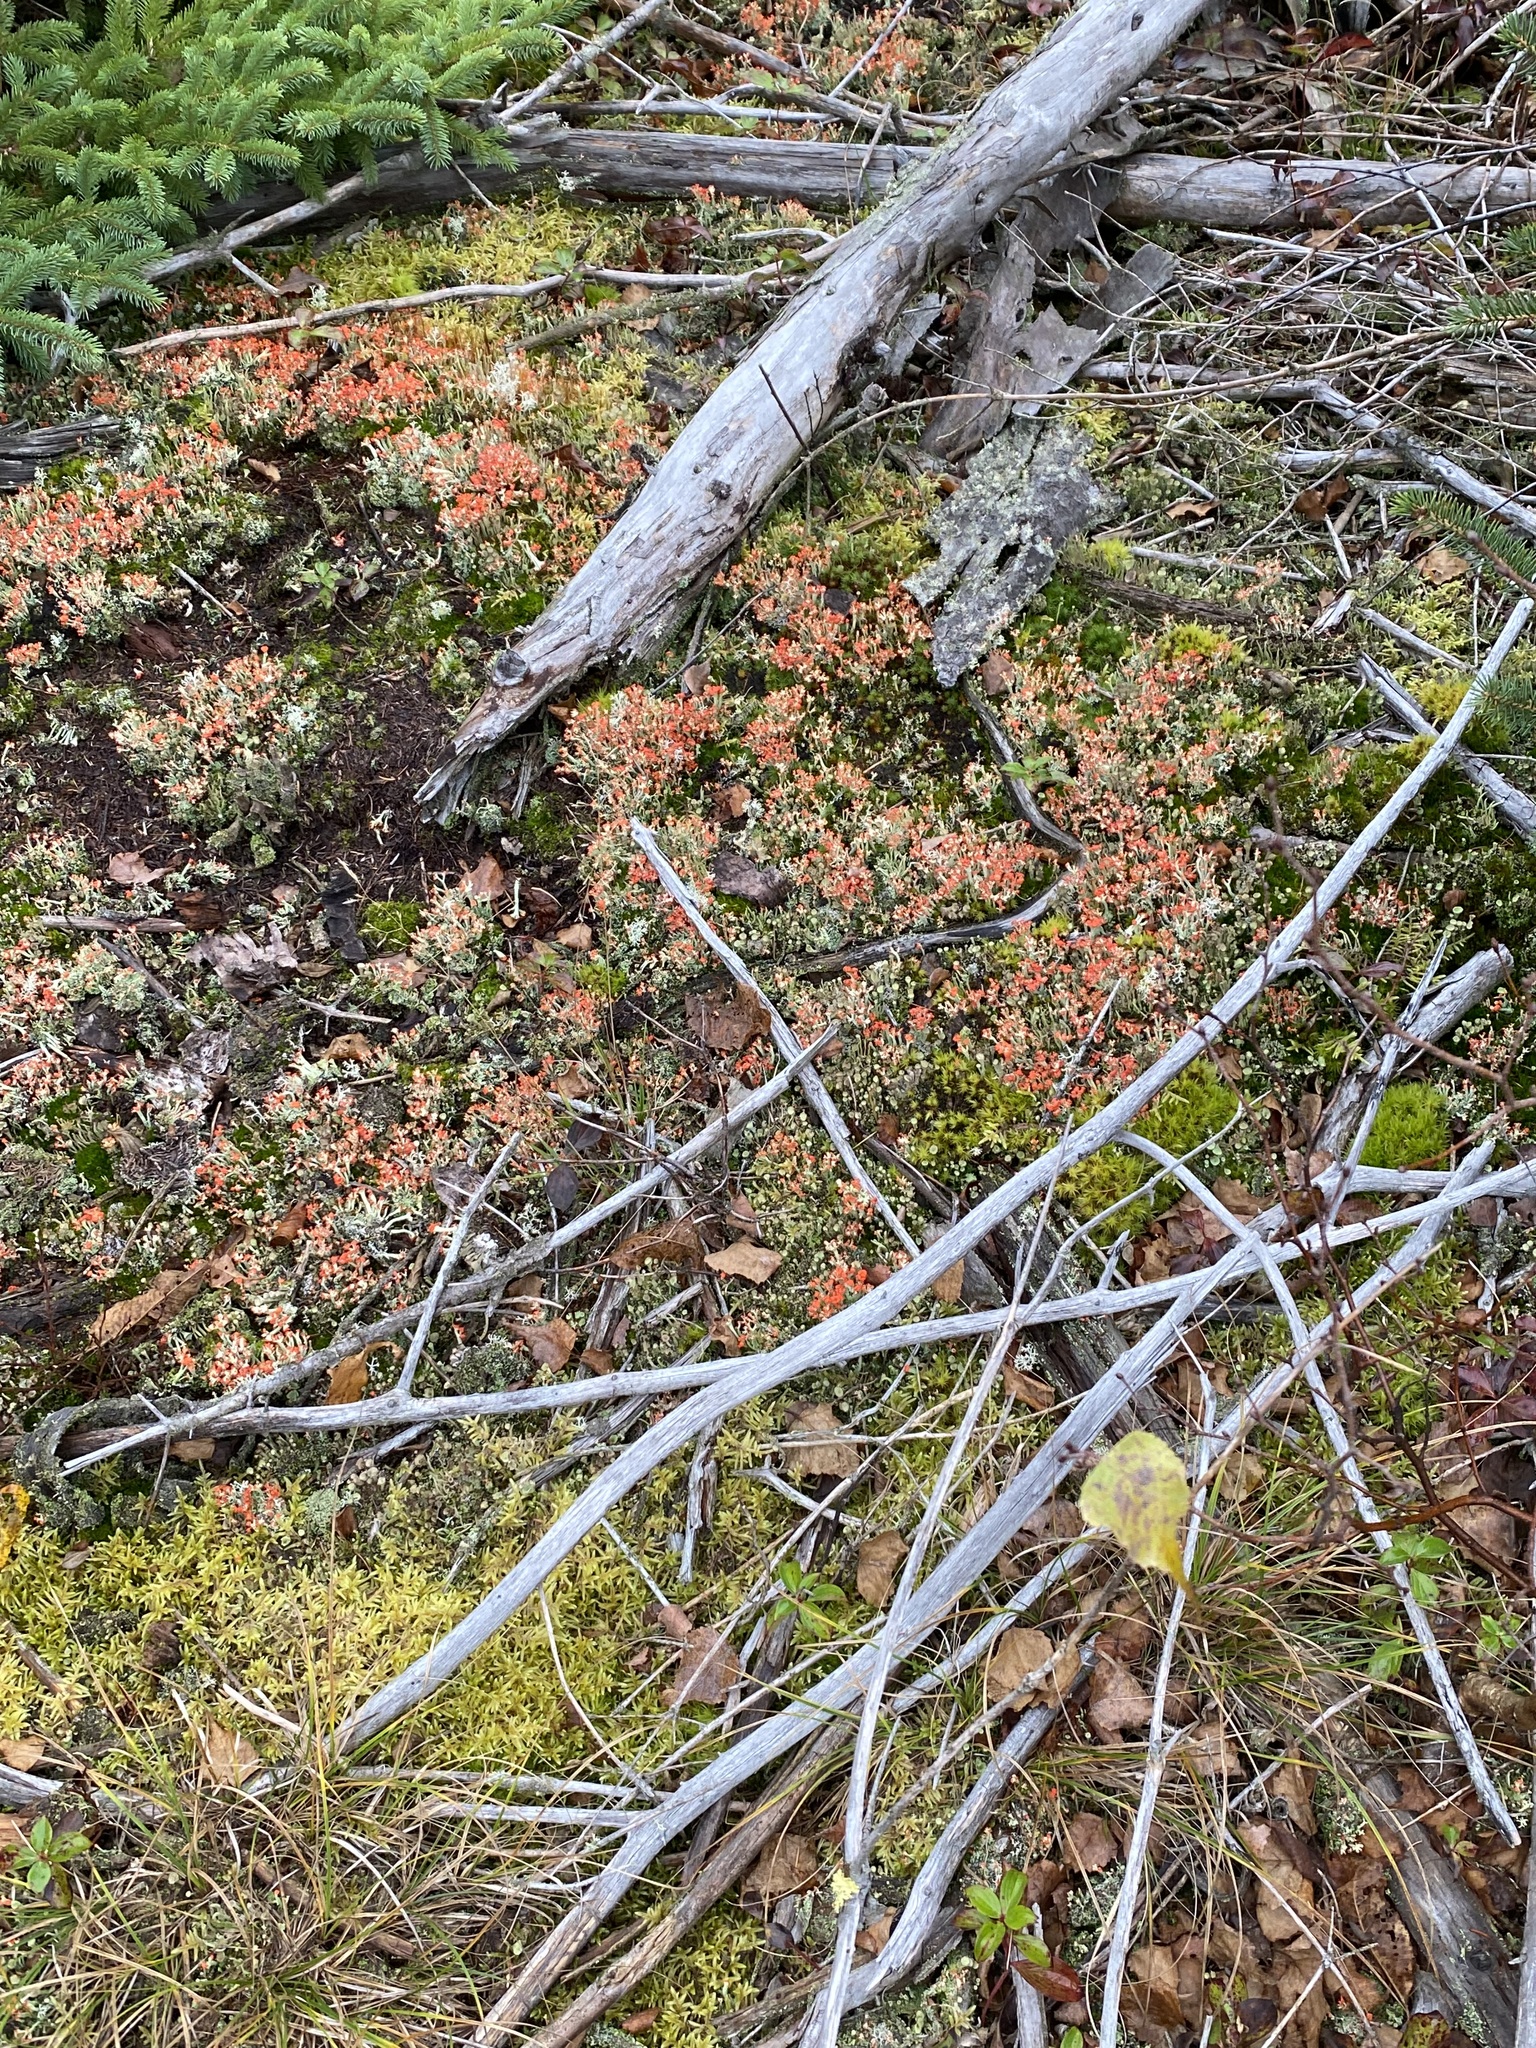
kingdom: Fungi
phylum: Ascomycota
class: Lecanoromycetes
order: Lecanorales
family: Cladoniaceae
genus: Cladonia
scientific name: Cladonia cristatella
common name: British soldier lichen
